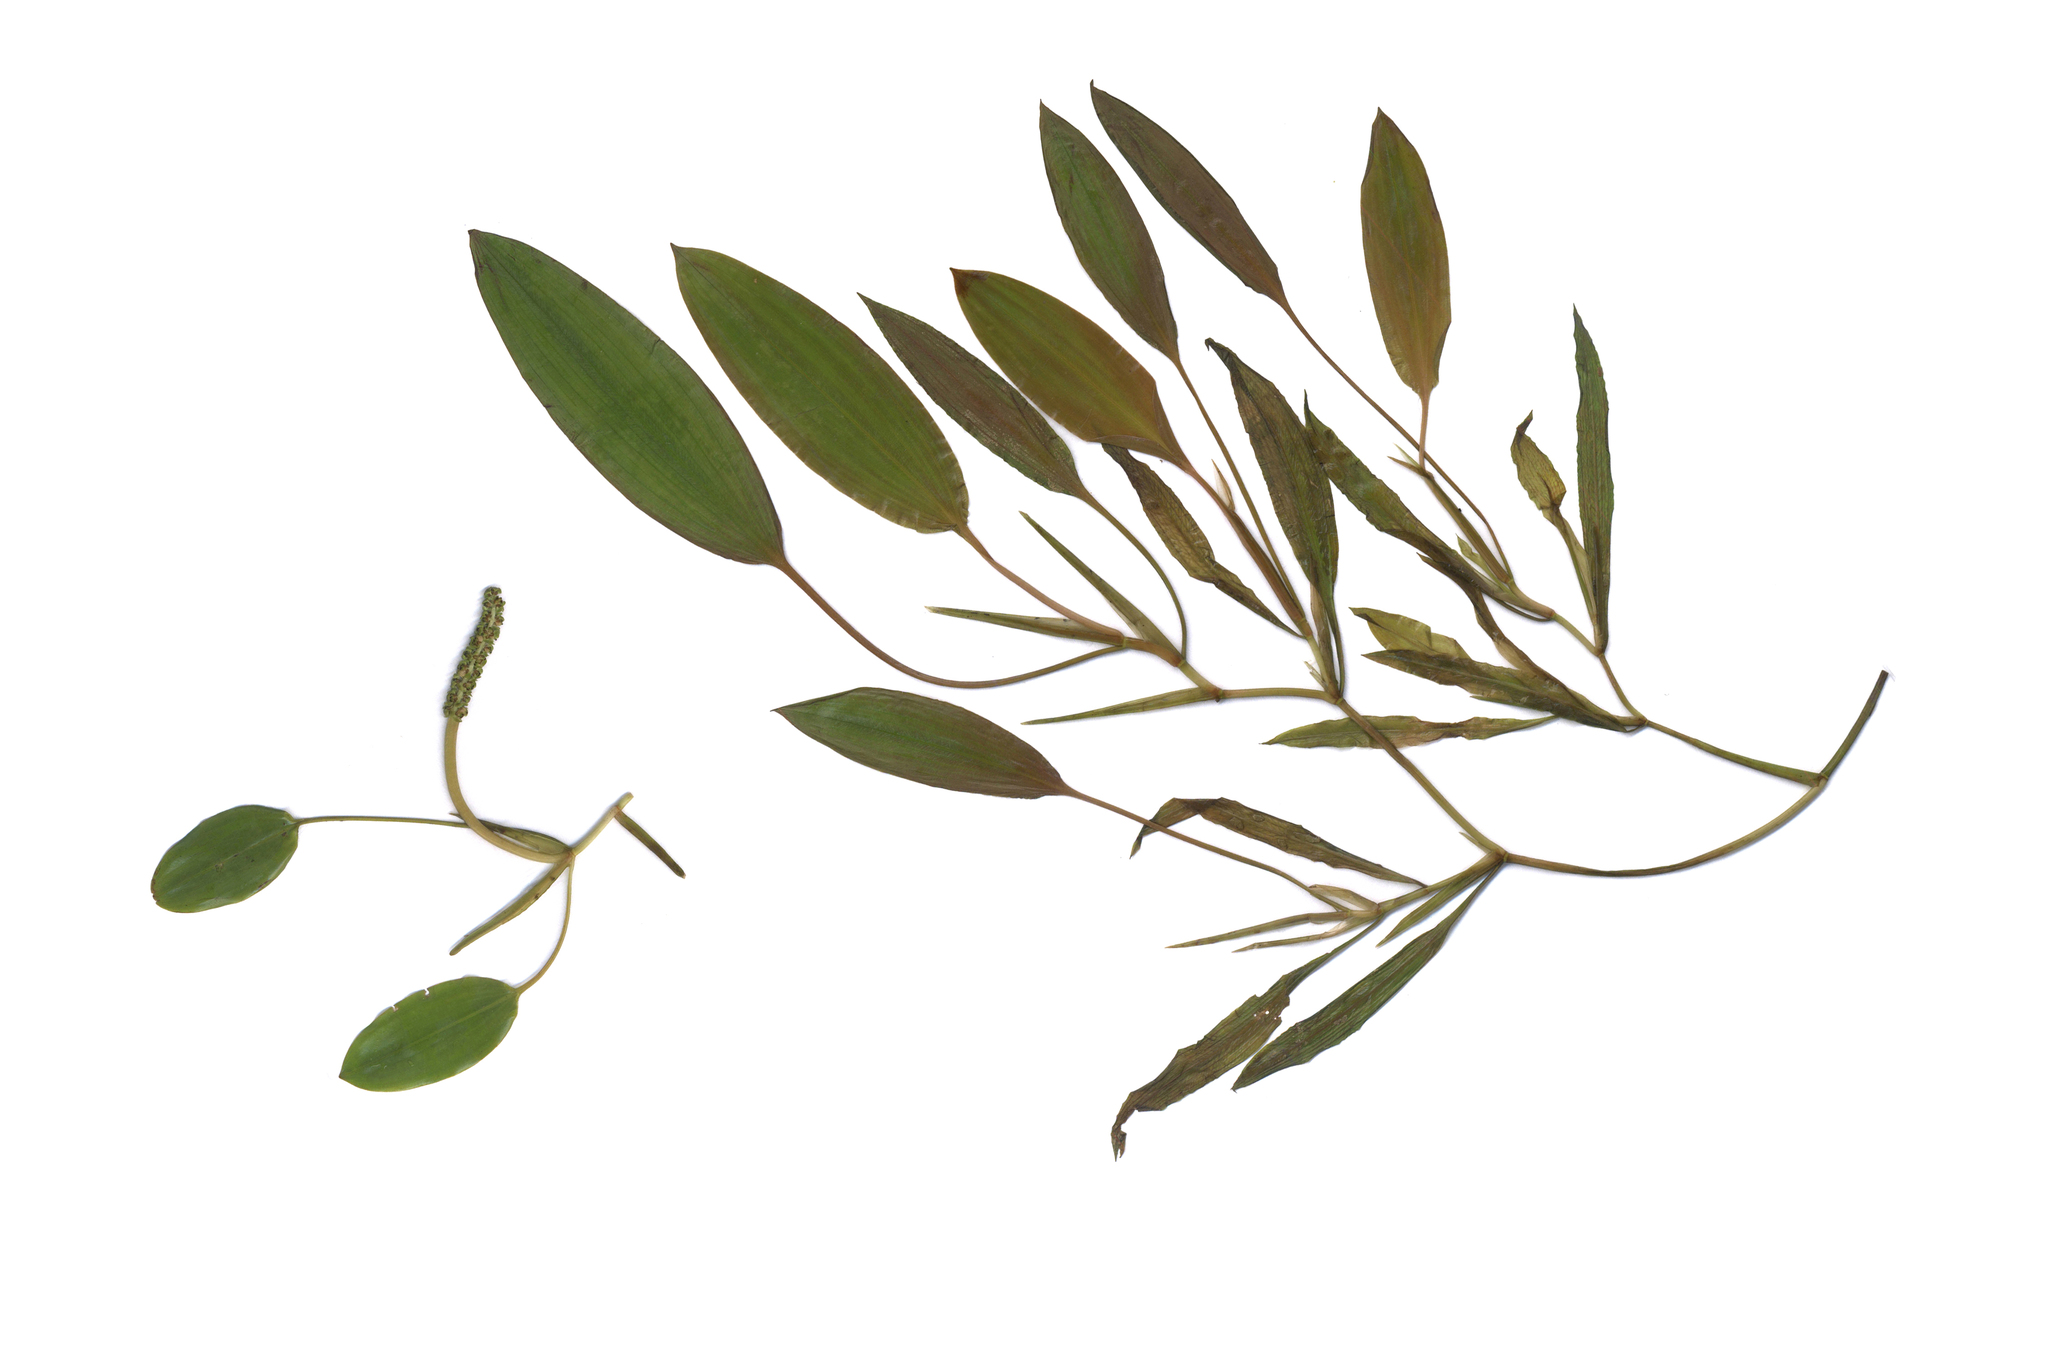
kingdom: Plantae
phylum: Tracheophyta
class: Liliopsida
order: Alismatales
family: Potamogetonaceae
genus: Potamogeton
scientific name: Potamogeton gramineus
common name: Various-leaved pondweed
